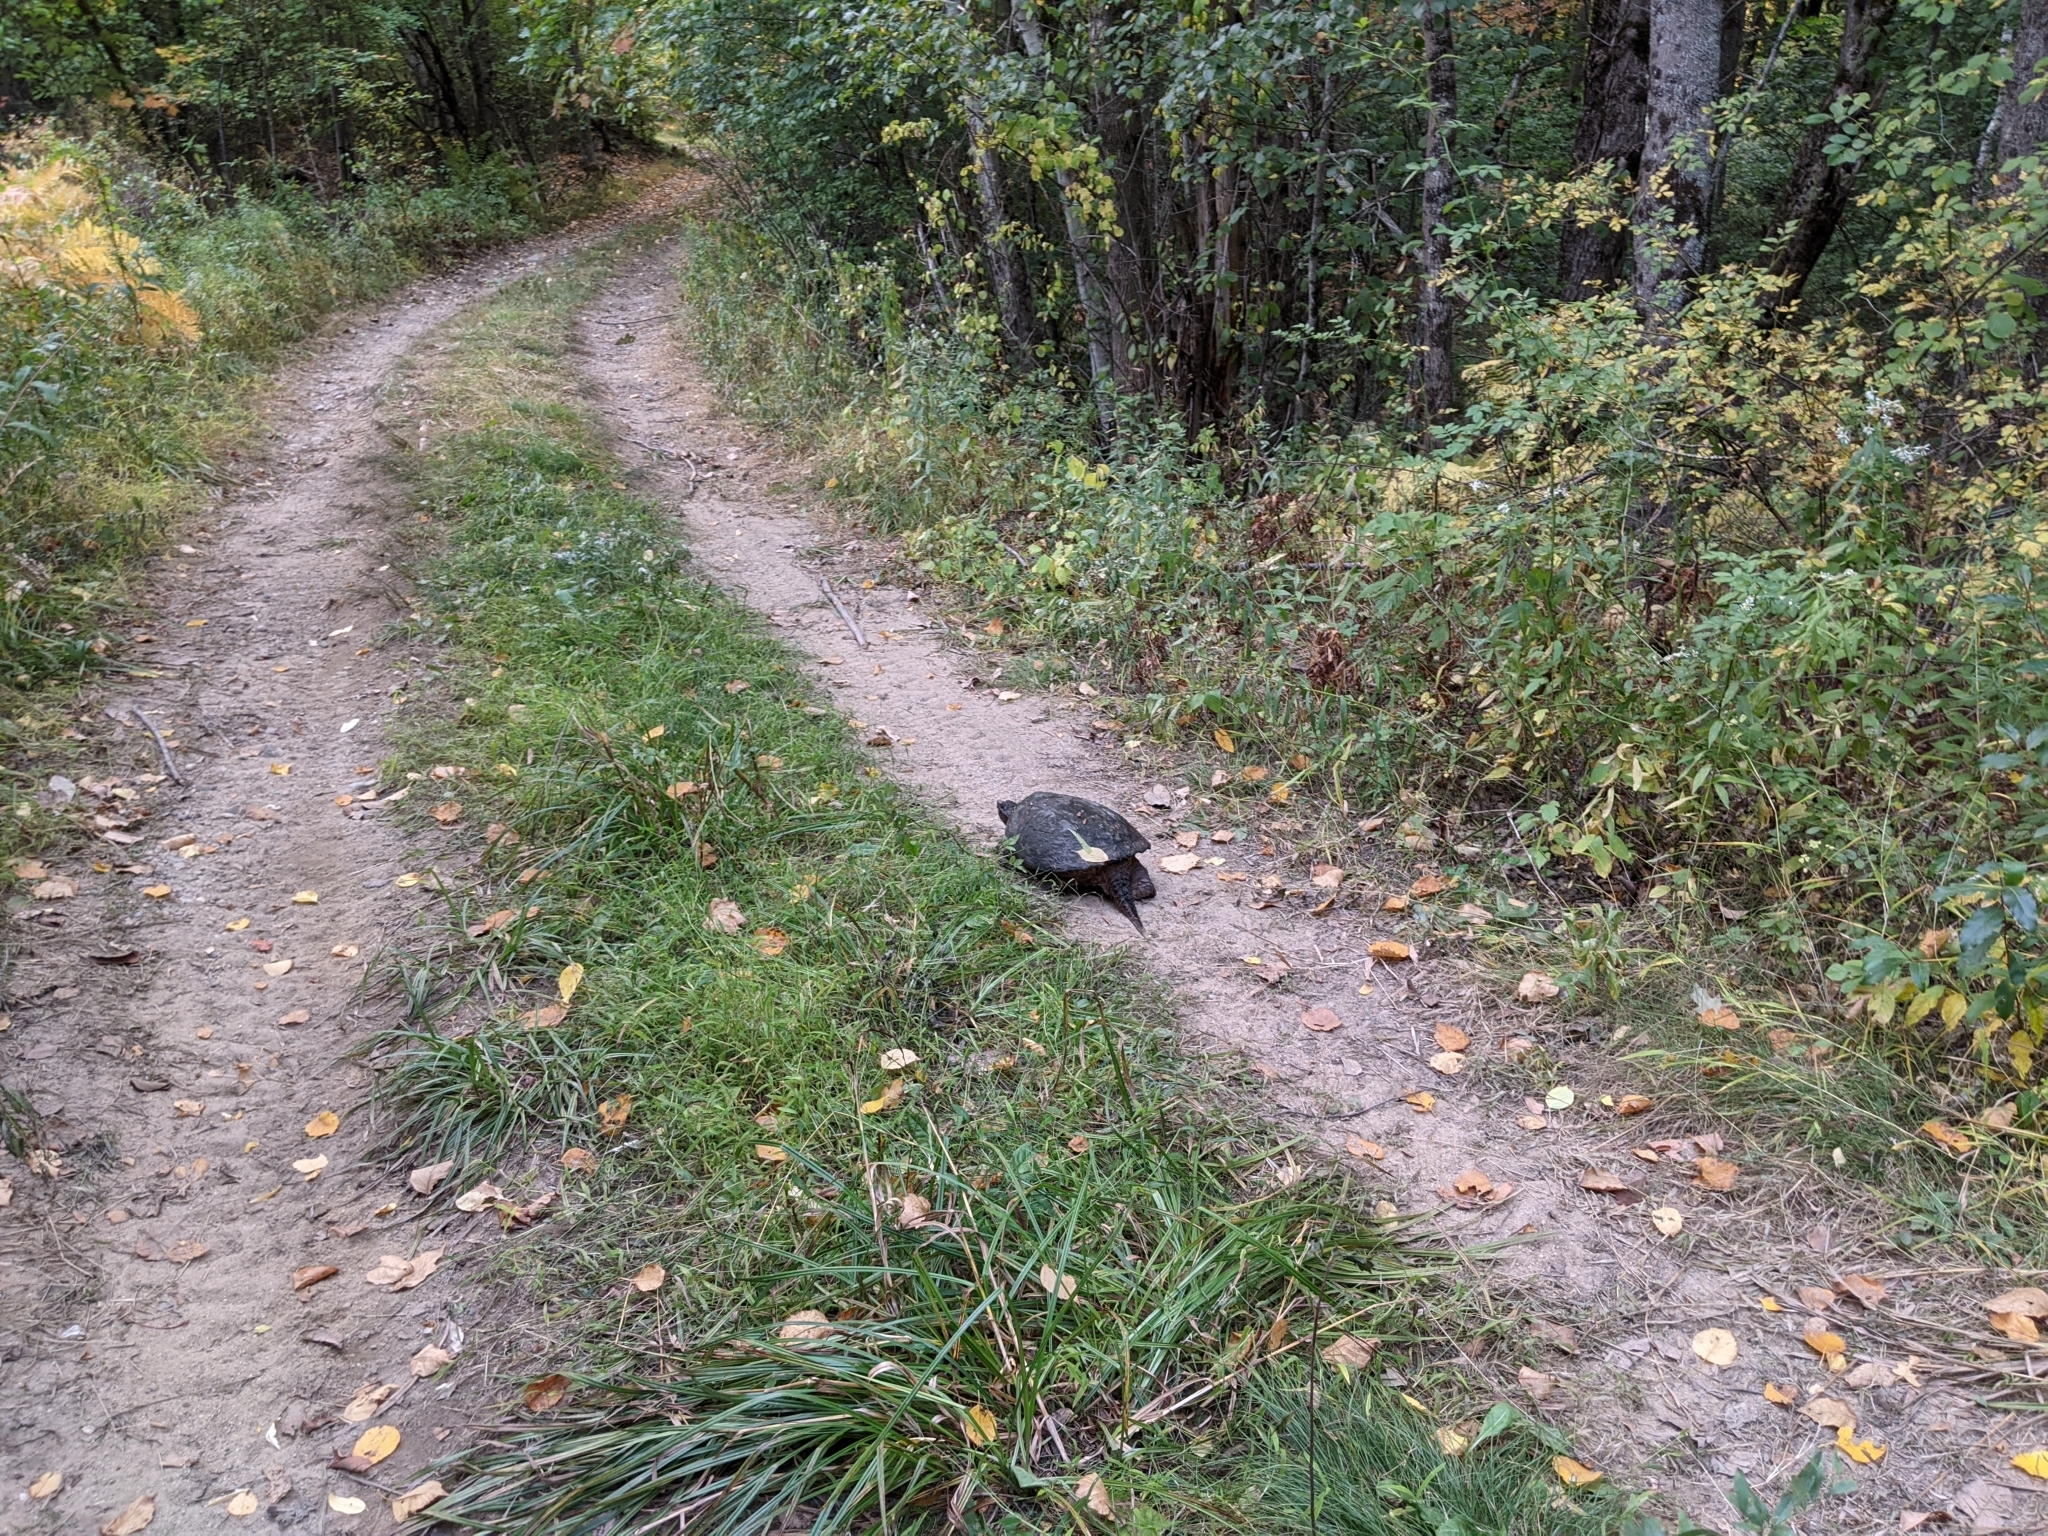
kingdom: Animalia
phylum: Chordata
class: Testudines
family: Chelydridae
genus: Chelydra
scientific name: Chelydra serpentina
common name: Common snapping turtle
